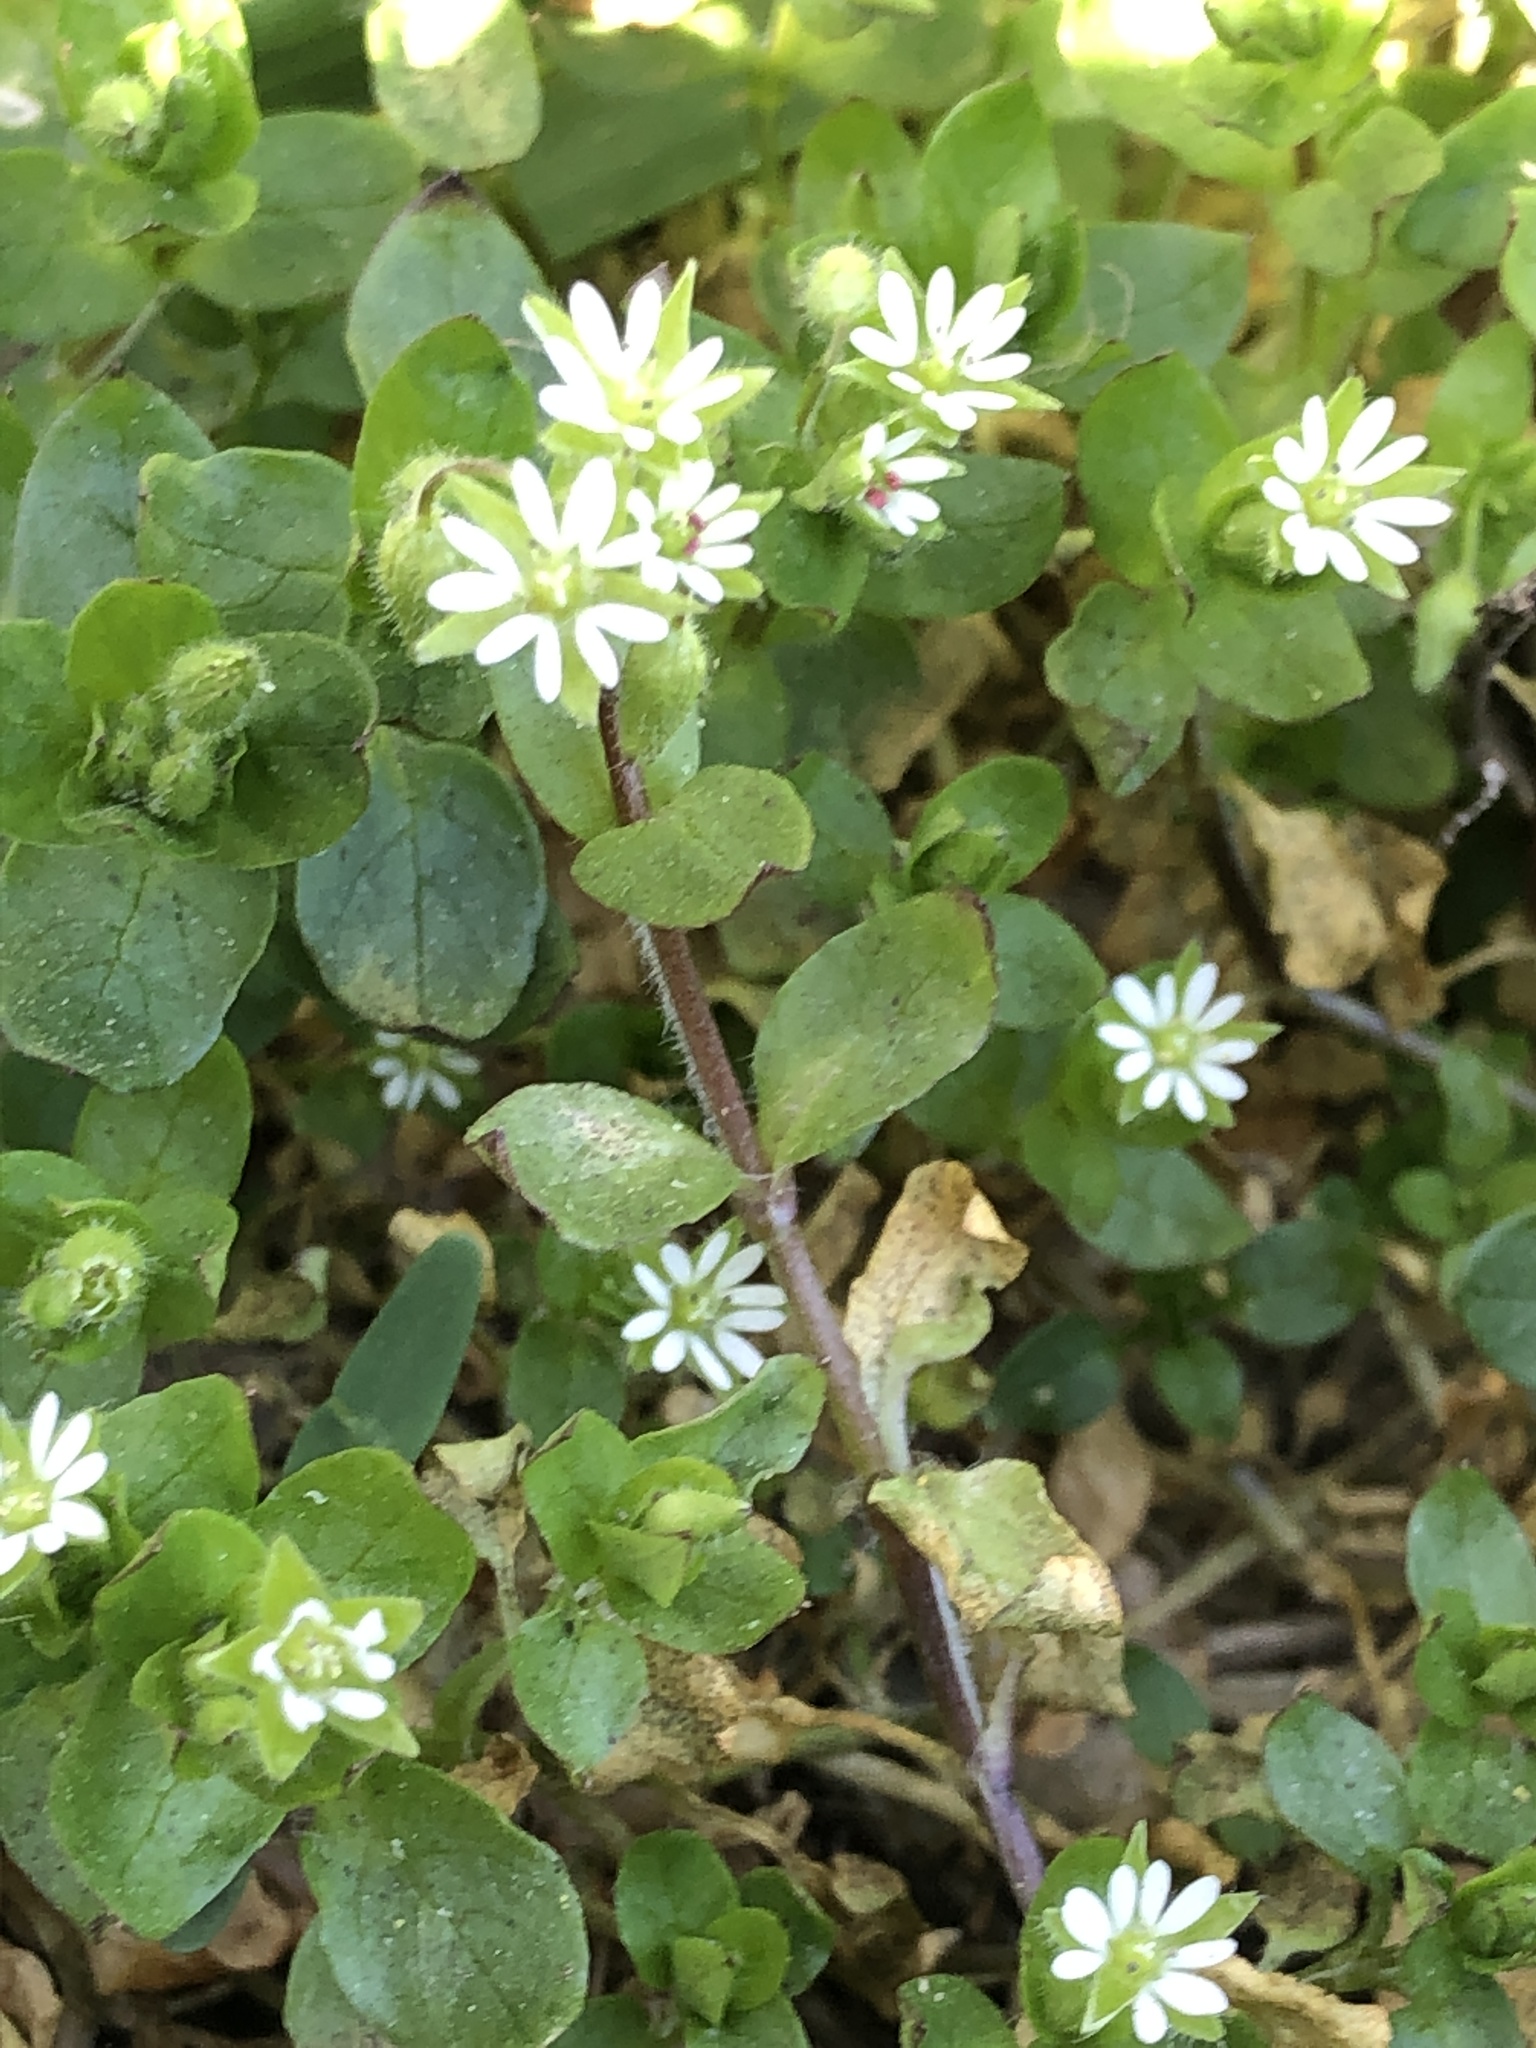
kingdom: Plantae
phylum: Tracheophyta
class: Magnoliopsida
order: Caryophyllales
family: Caryophyllaceae
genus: Stellaria
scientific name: Stellaria media
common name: Common chickweed
